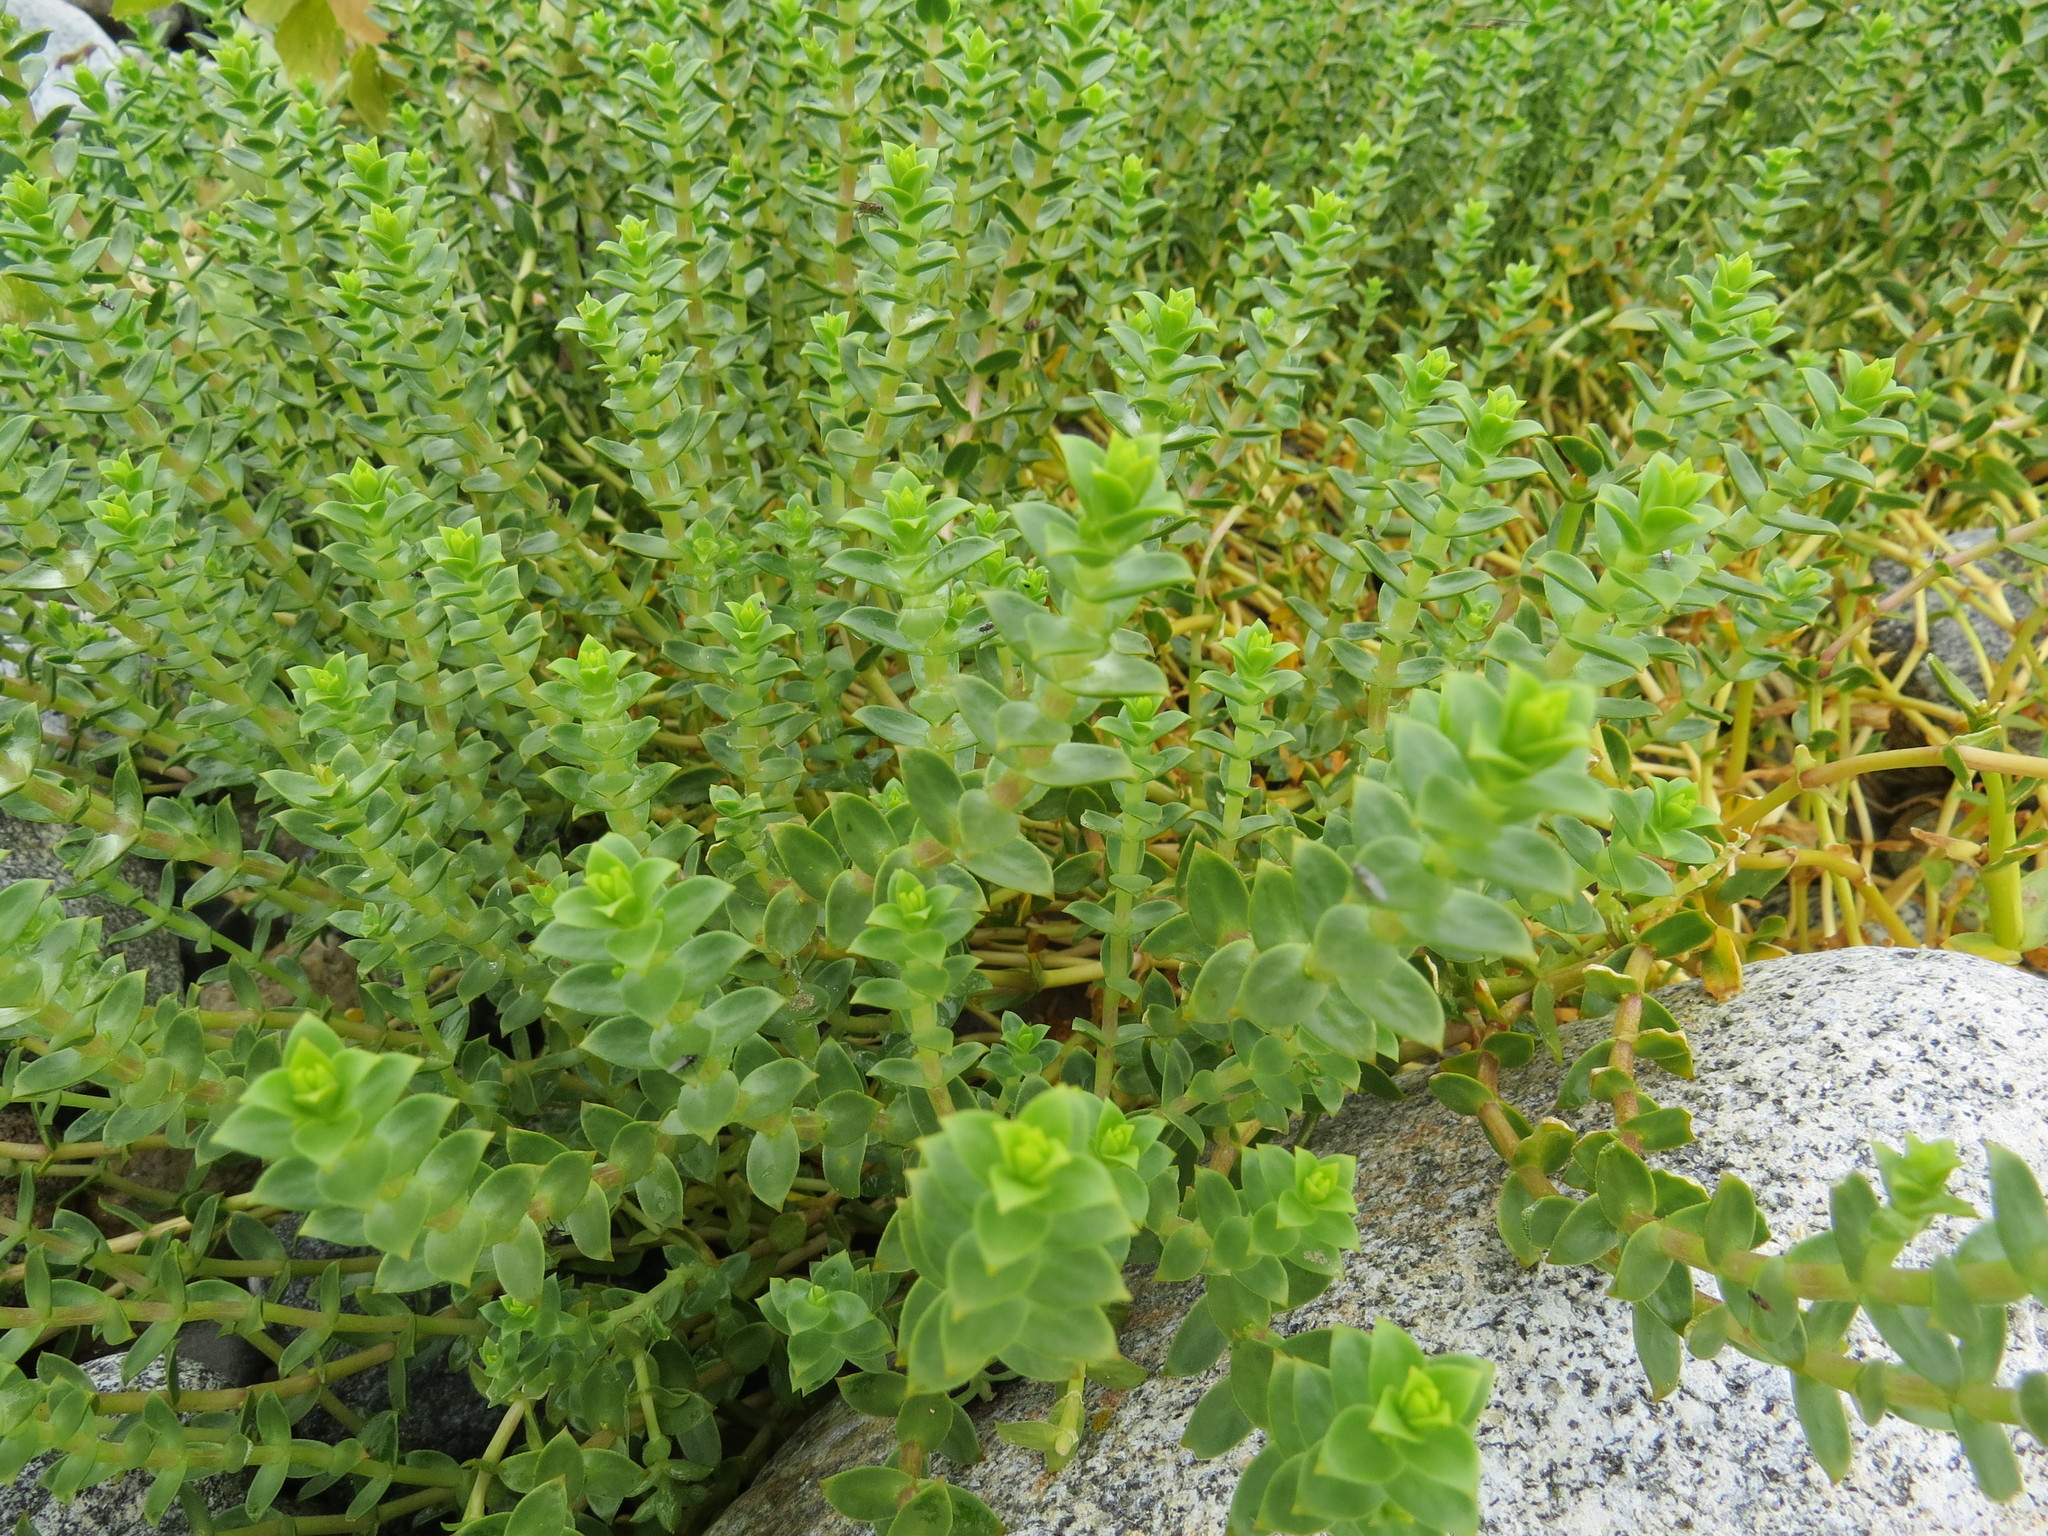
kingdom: Plantae
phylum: Tracheophyta
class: Magnoliopsida
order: Caryophyllales
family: Caryophyllaceae
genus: Honckenya
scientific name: Honckenya peploides
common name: Sea sandwort
